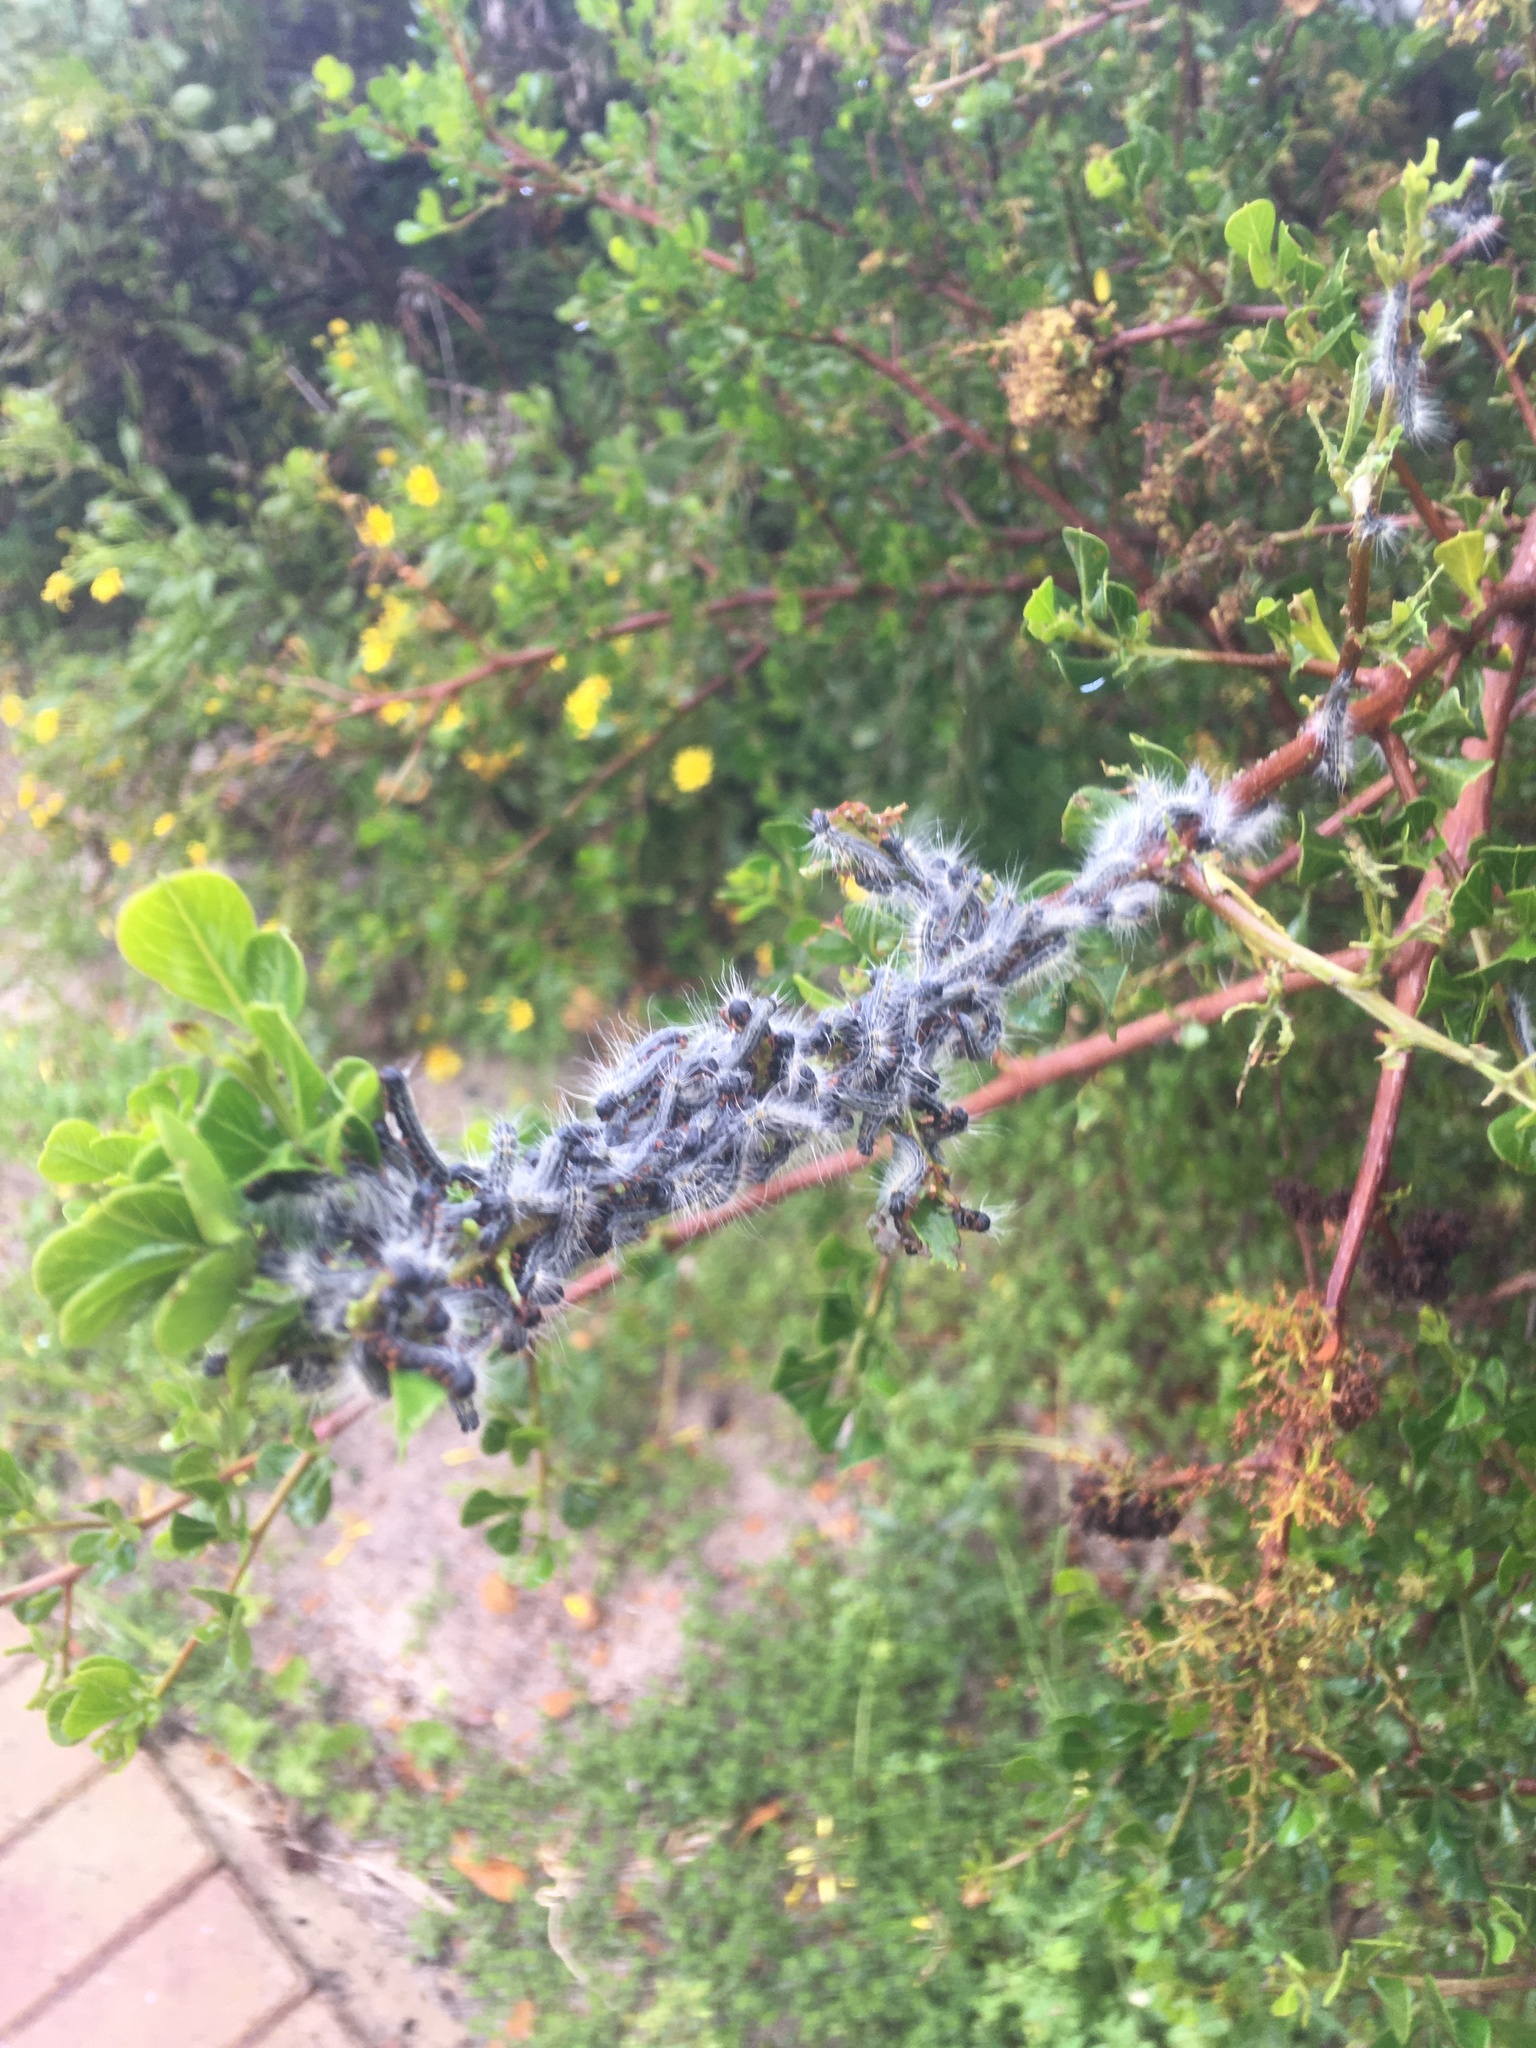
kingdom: Animalia
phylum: Arthropoda
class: Insecta
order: Lepidoptera
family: Lasiocampidae
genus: Bombycomorpha
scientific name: Bombycomorpha bifascia
